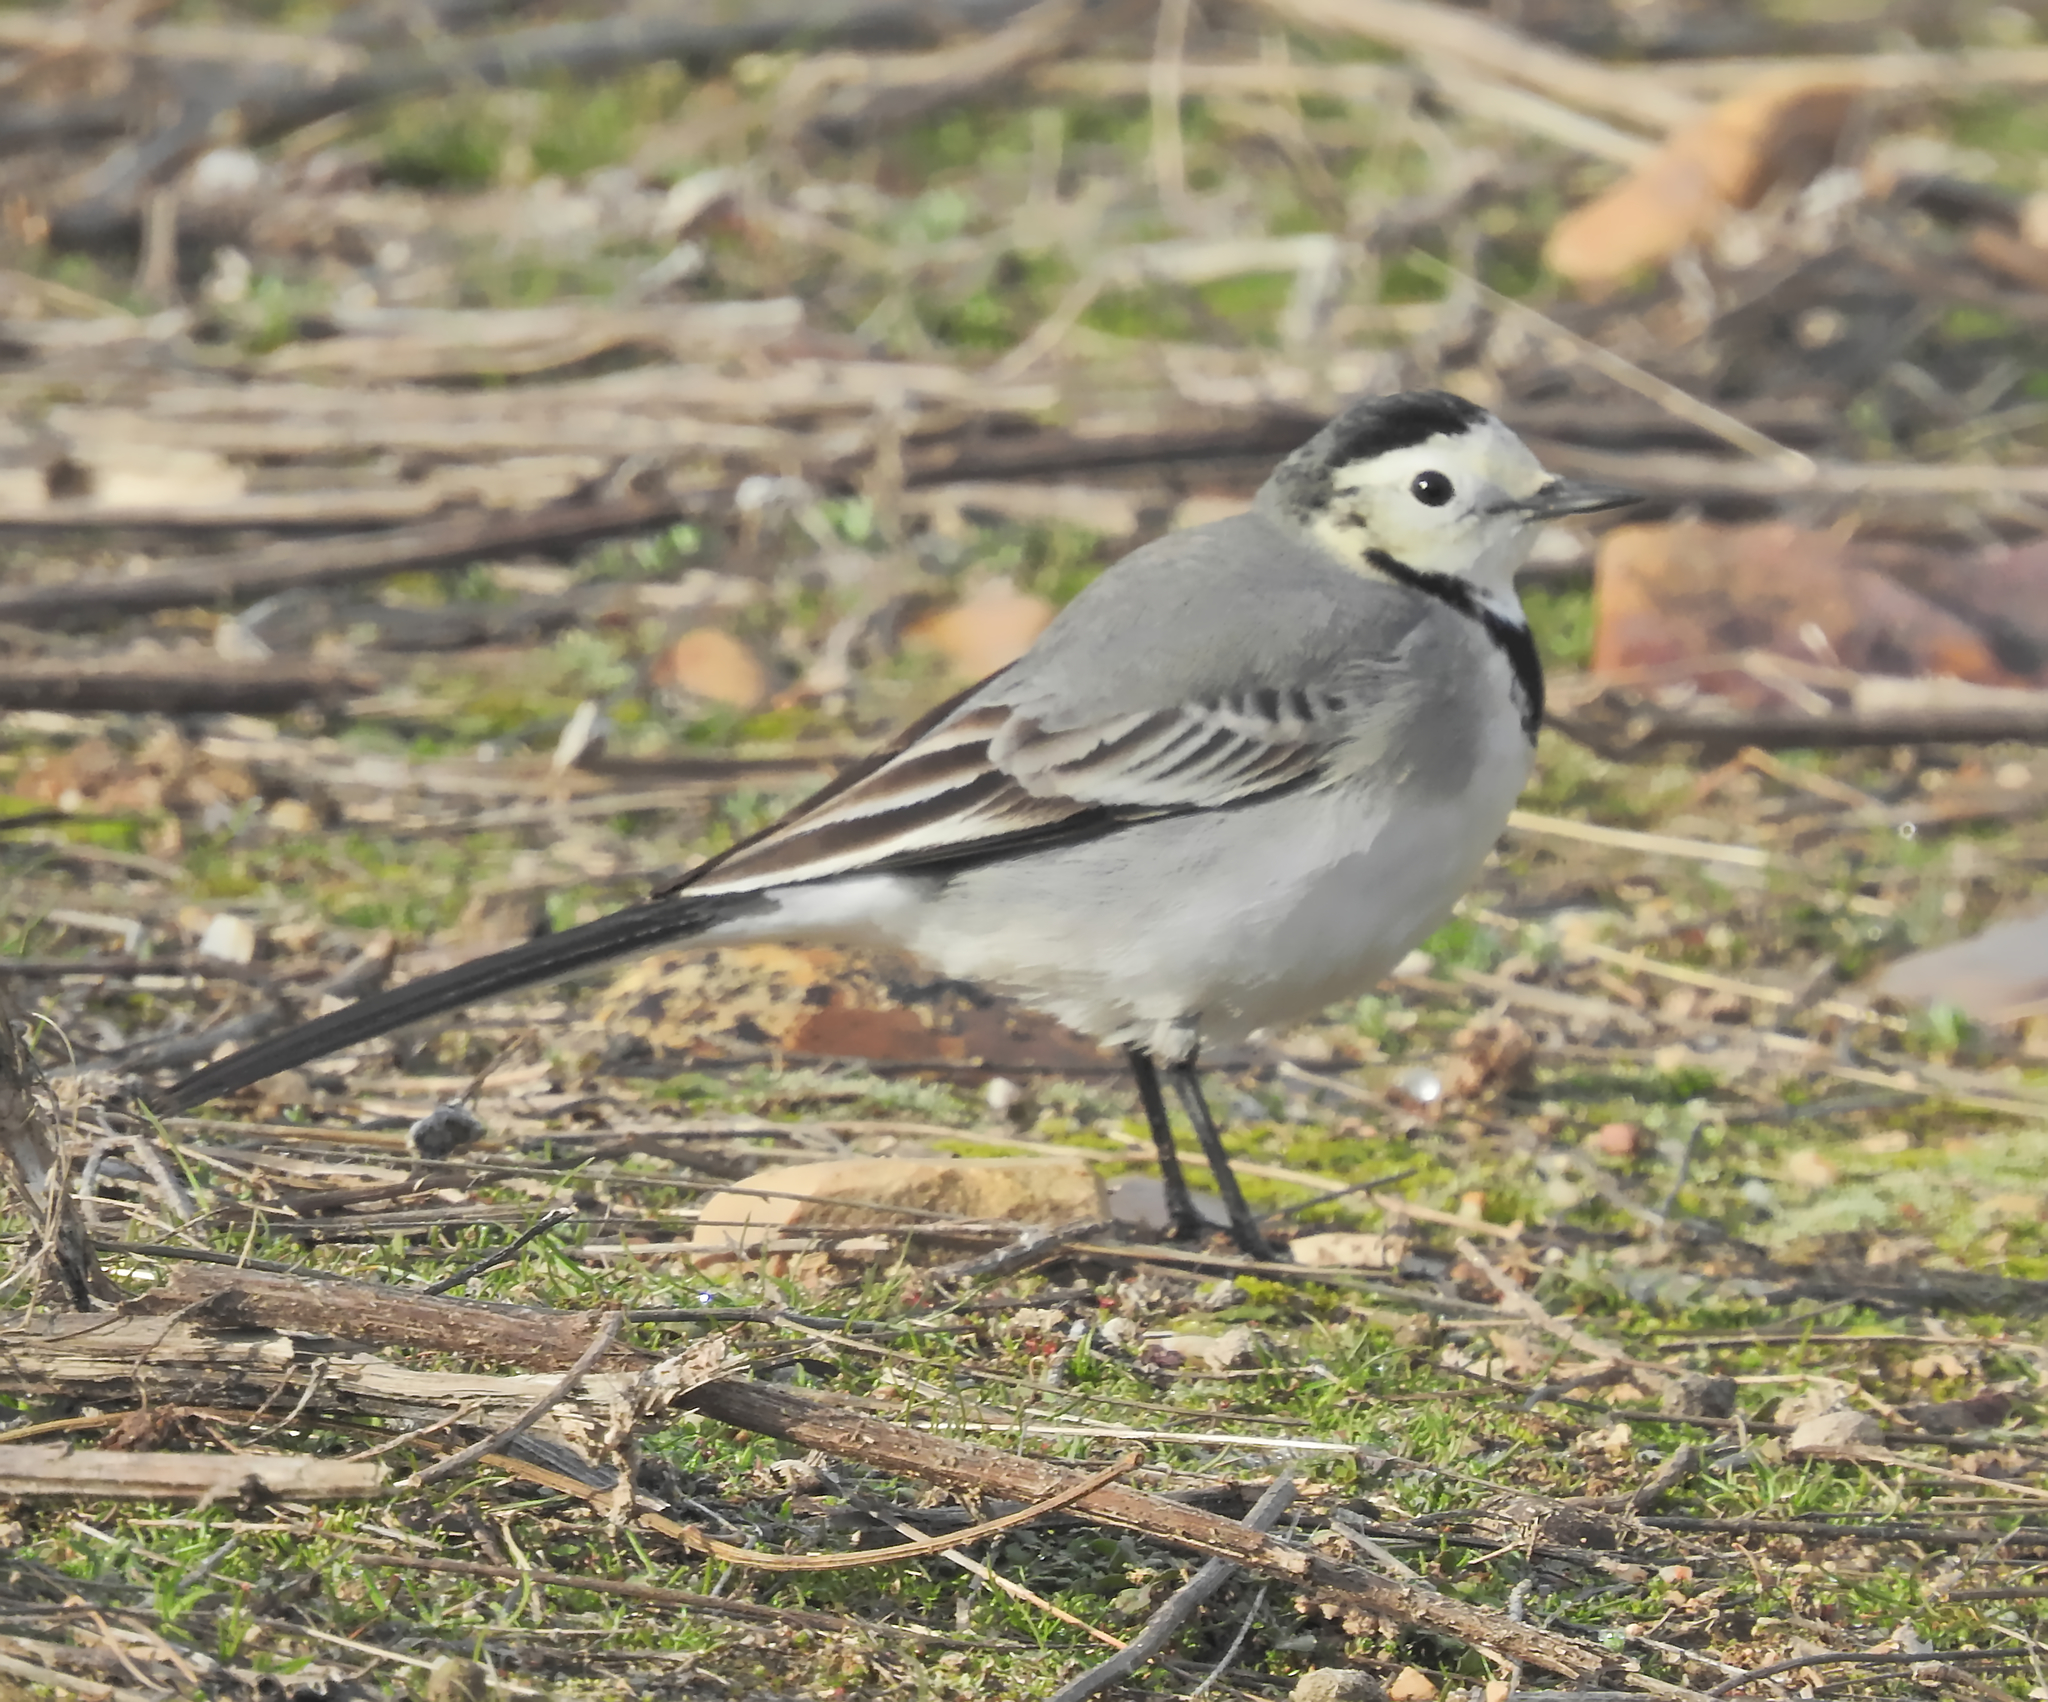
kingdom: Animalia
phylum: Chordata
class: Aves
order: Passeriformes
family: Motacillidae
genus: Motacilla
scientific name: Motacilla alba
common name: White wagtail
